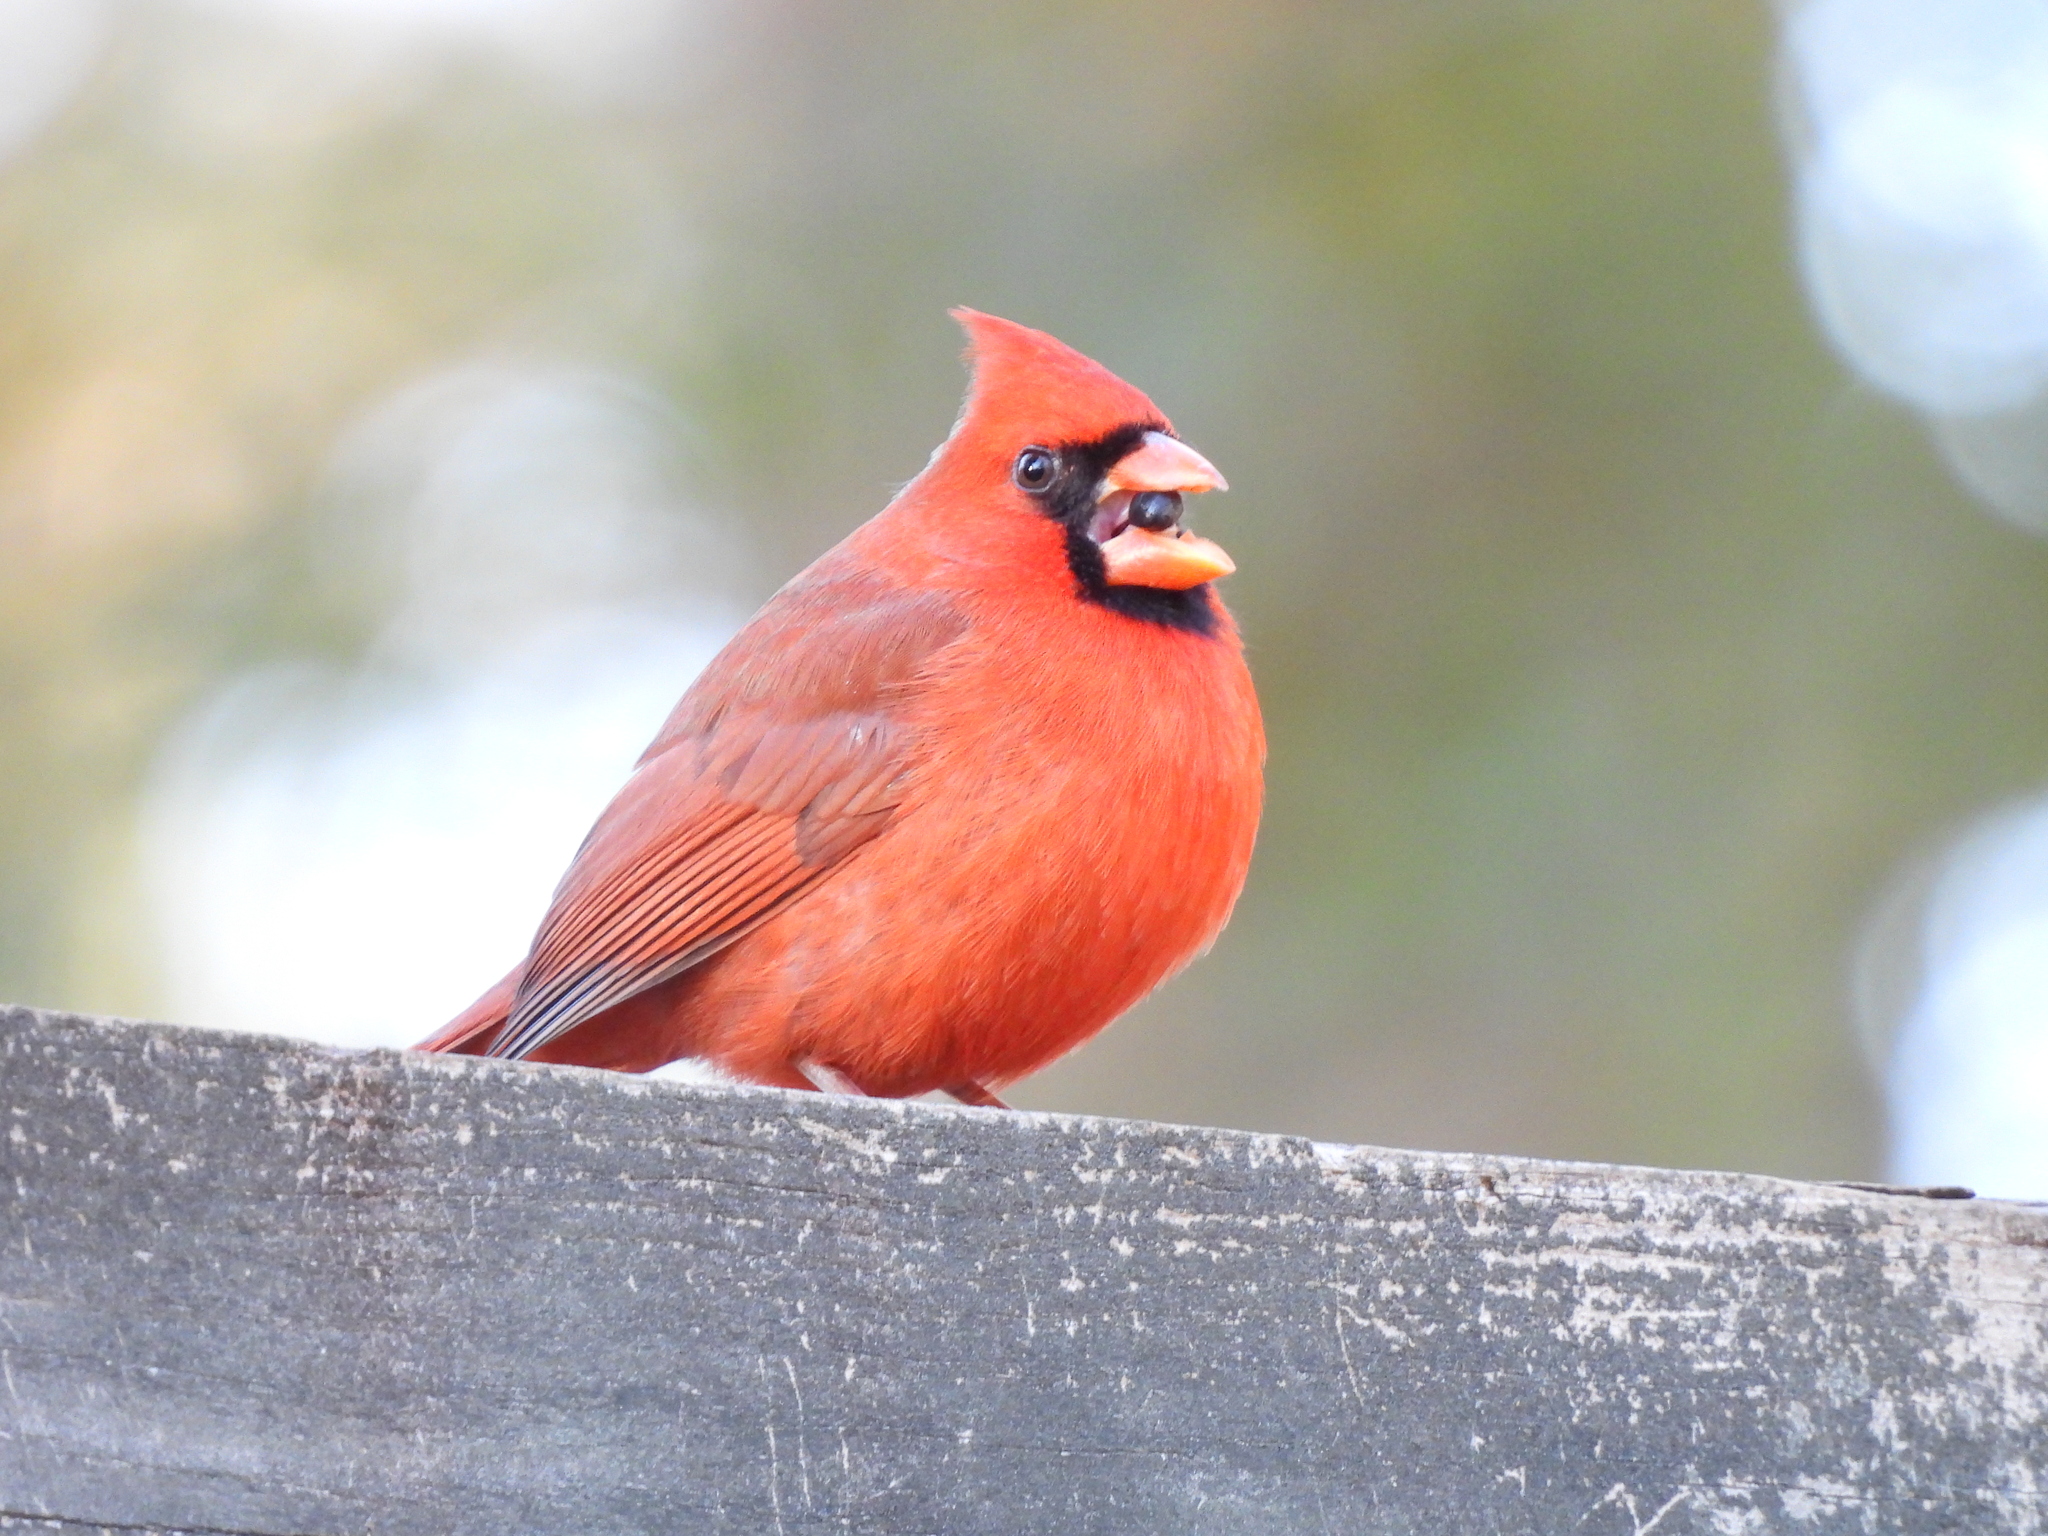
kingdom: Animalia
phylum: Chordata
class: Aves
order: Passeriformes
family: Cardinalidae
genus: Cardinalis
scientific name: Cardinalis cardinalis
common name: Northern cardinal
